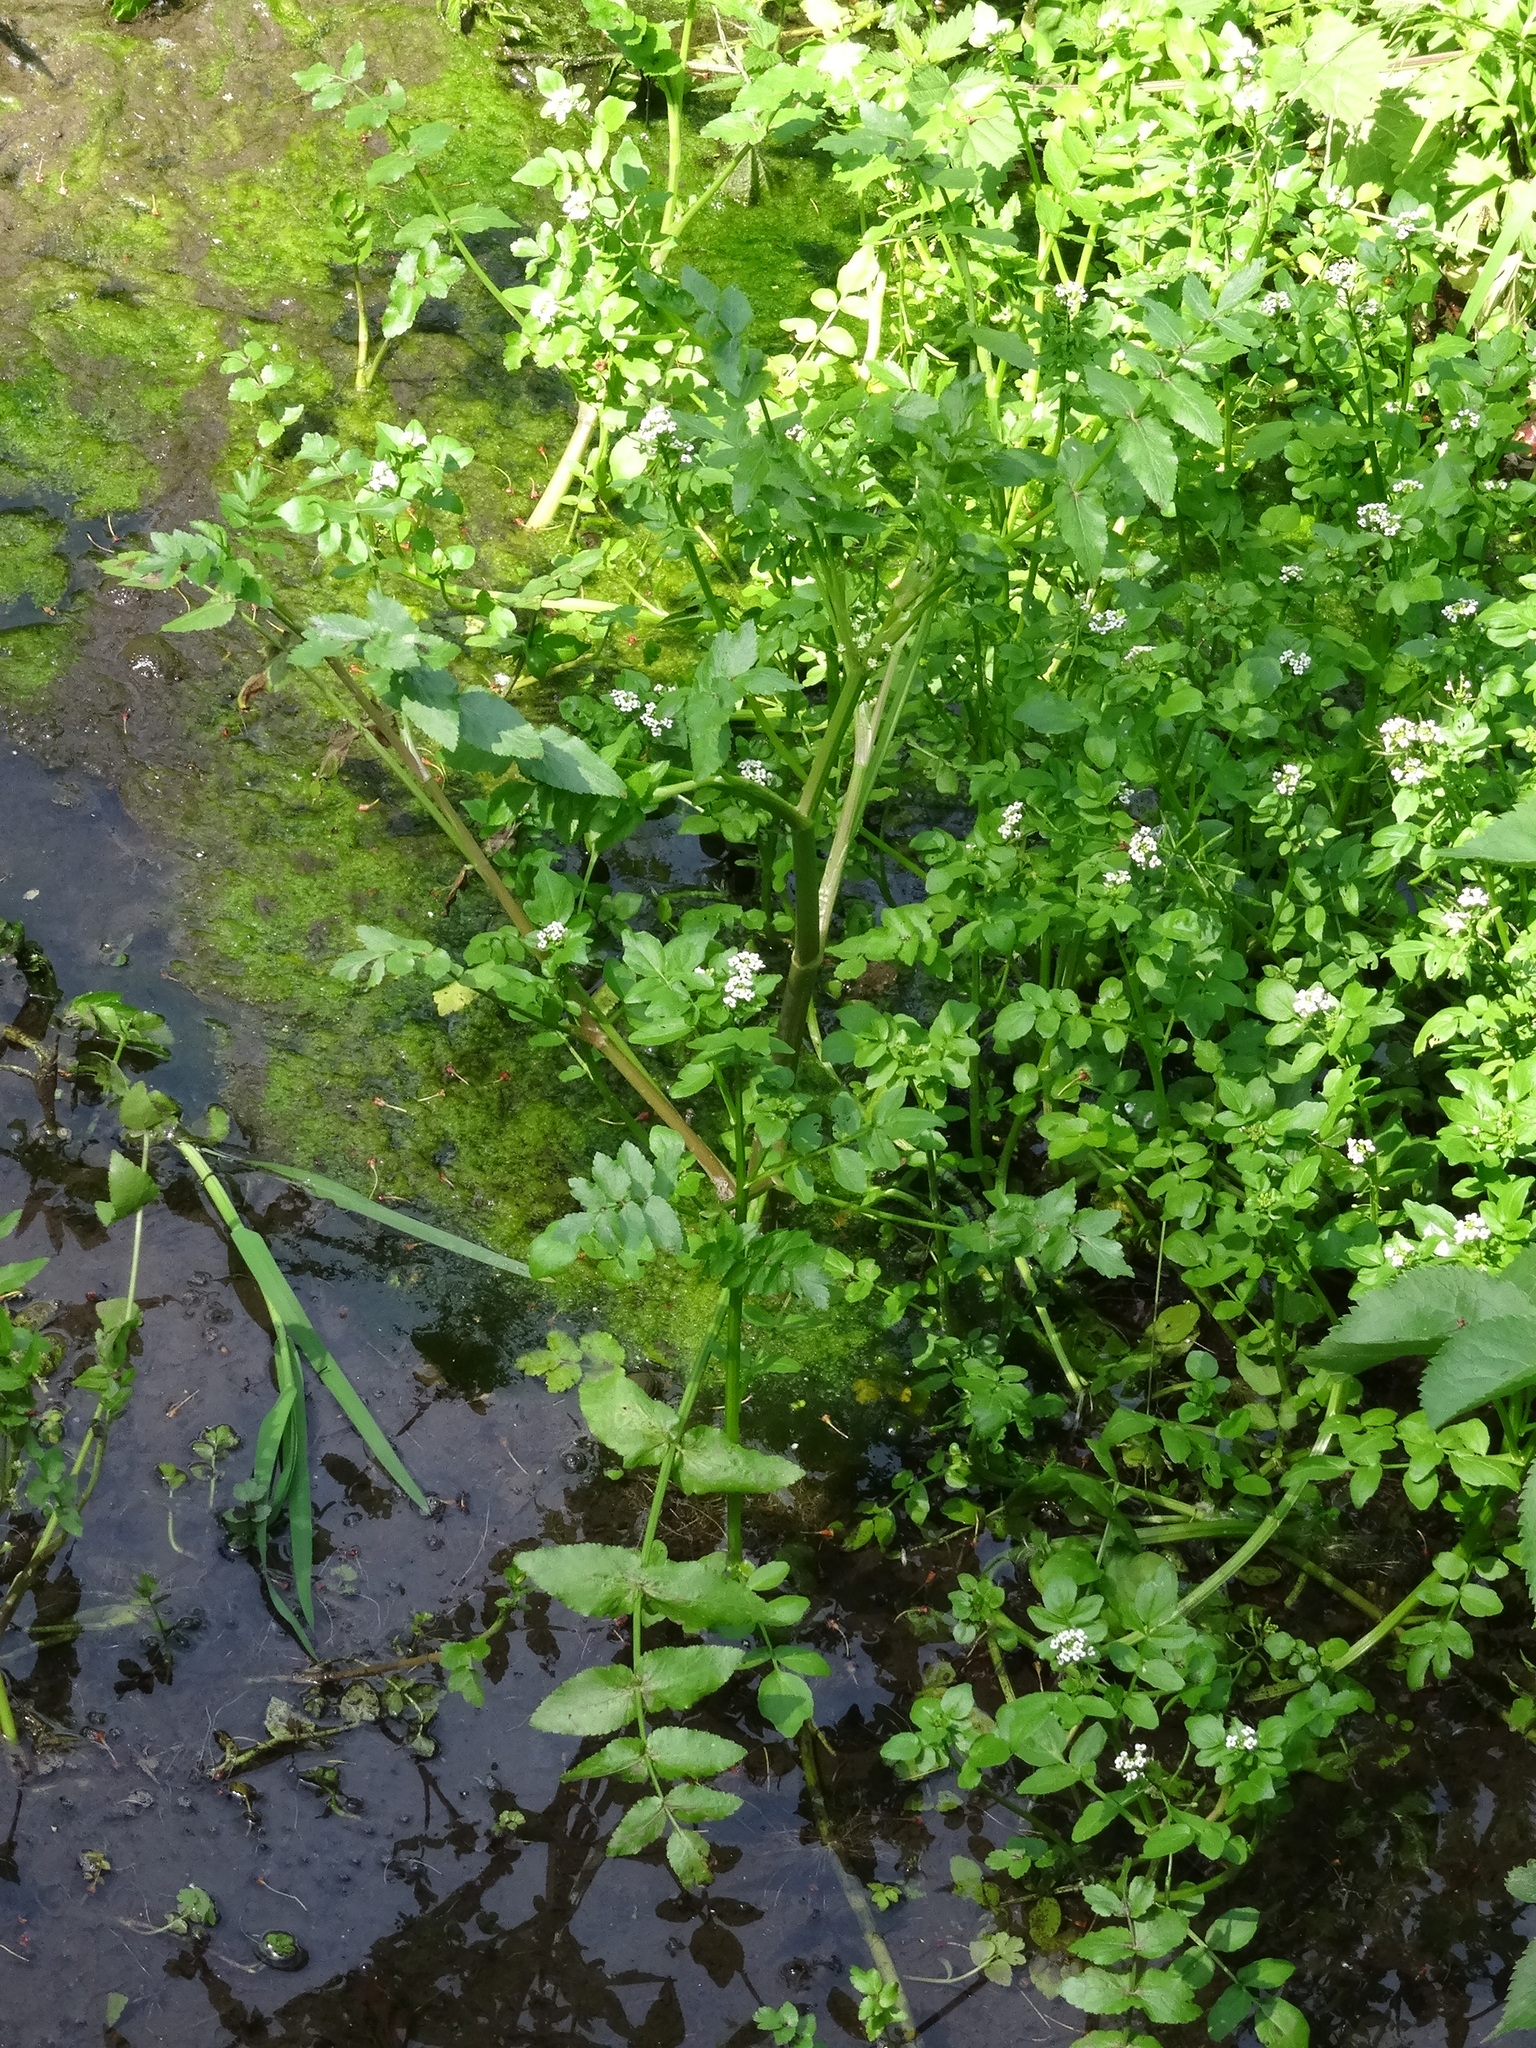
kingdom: Plantae
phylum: Tracheophyta
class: Magnoliopsida
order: Apiales
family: Apiaceae
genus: Helosciadium
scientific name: Helosciadium nodiflorum
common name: Fool's-watercress
